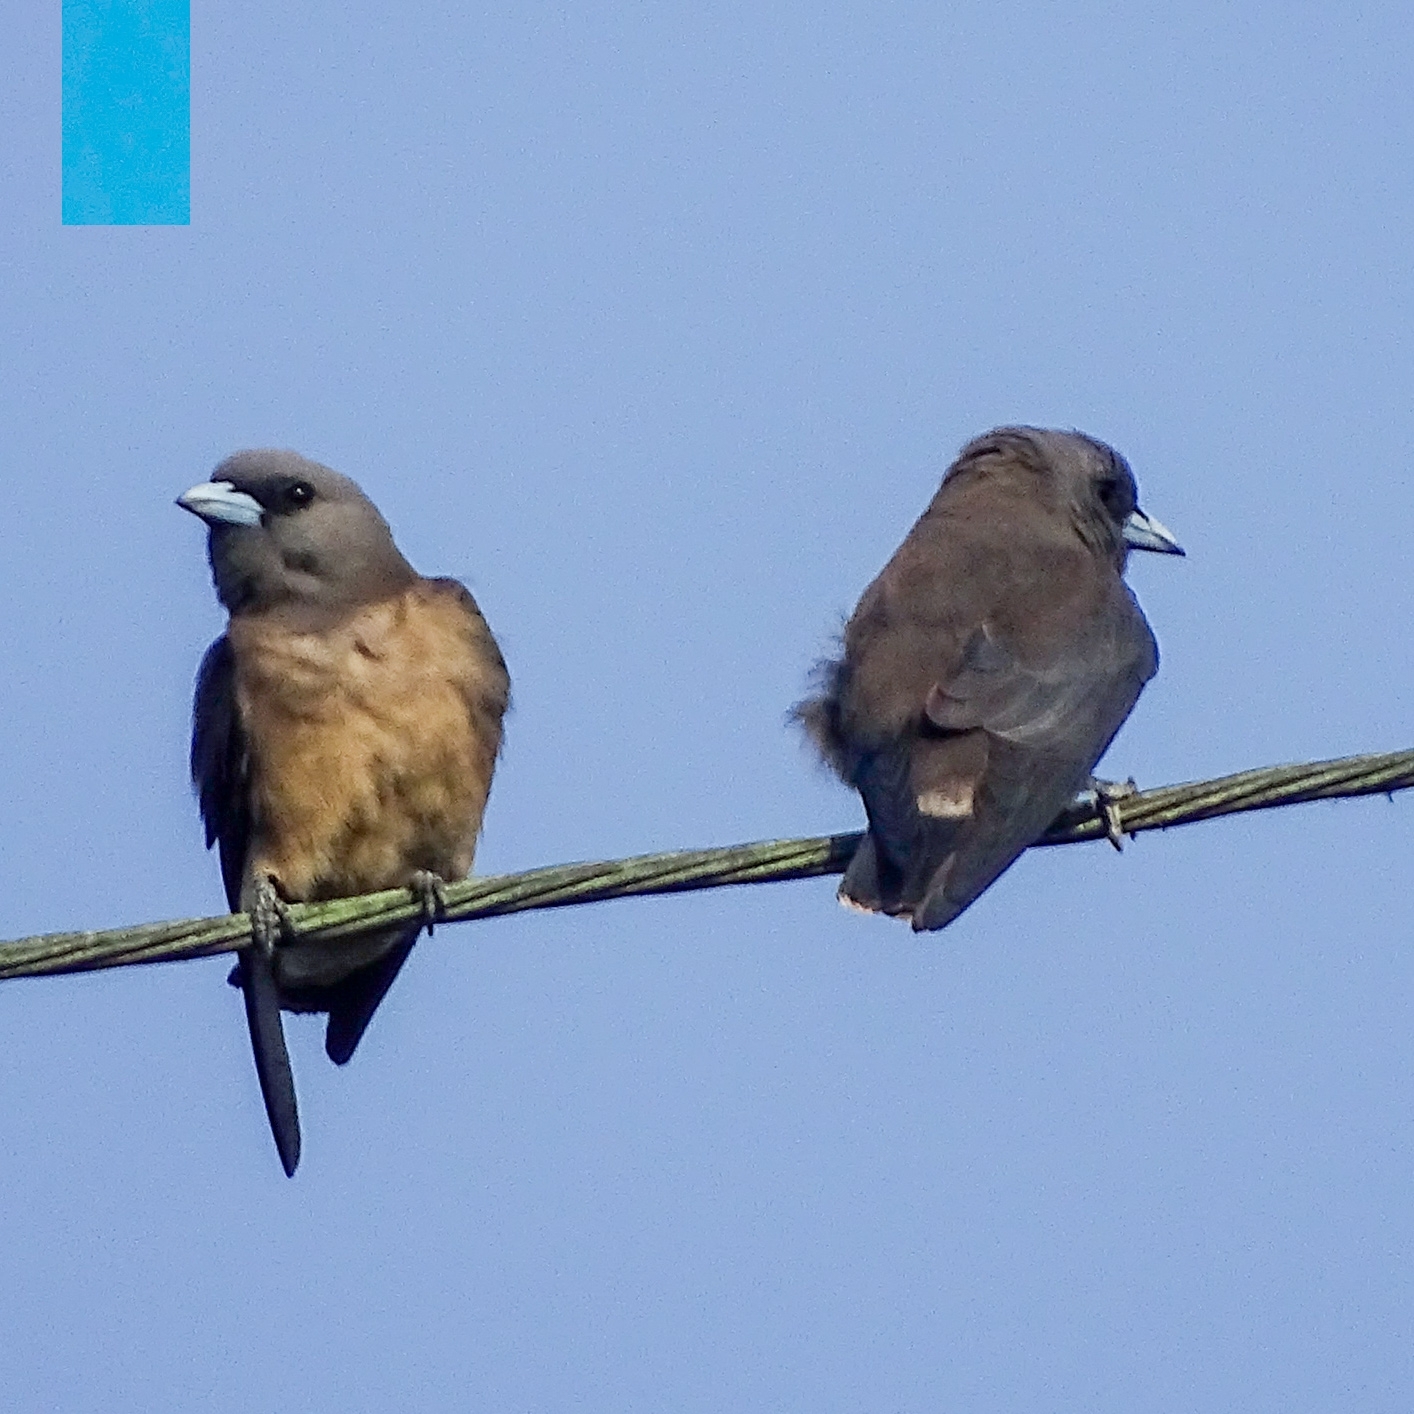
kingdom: Animalia
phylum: Chordata
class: Aves
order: Passeriformes
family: Artamidae
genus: Artamus
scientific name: Artamus fuscus
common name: Ashy woodswallow
